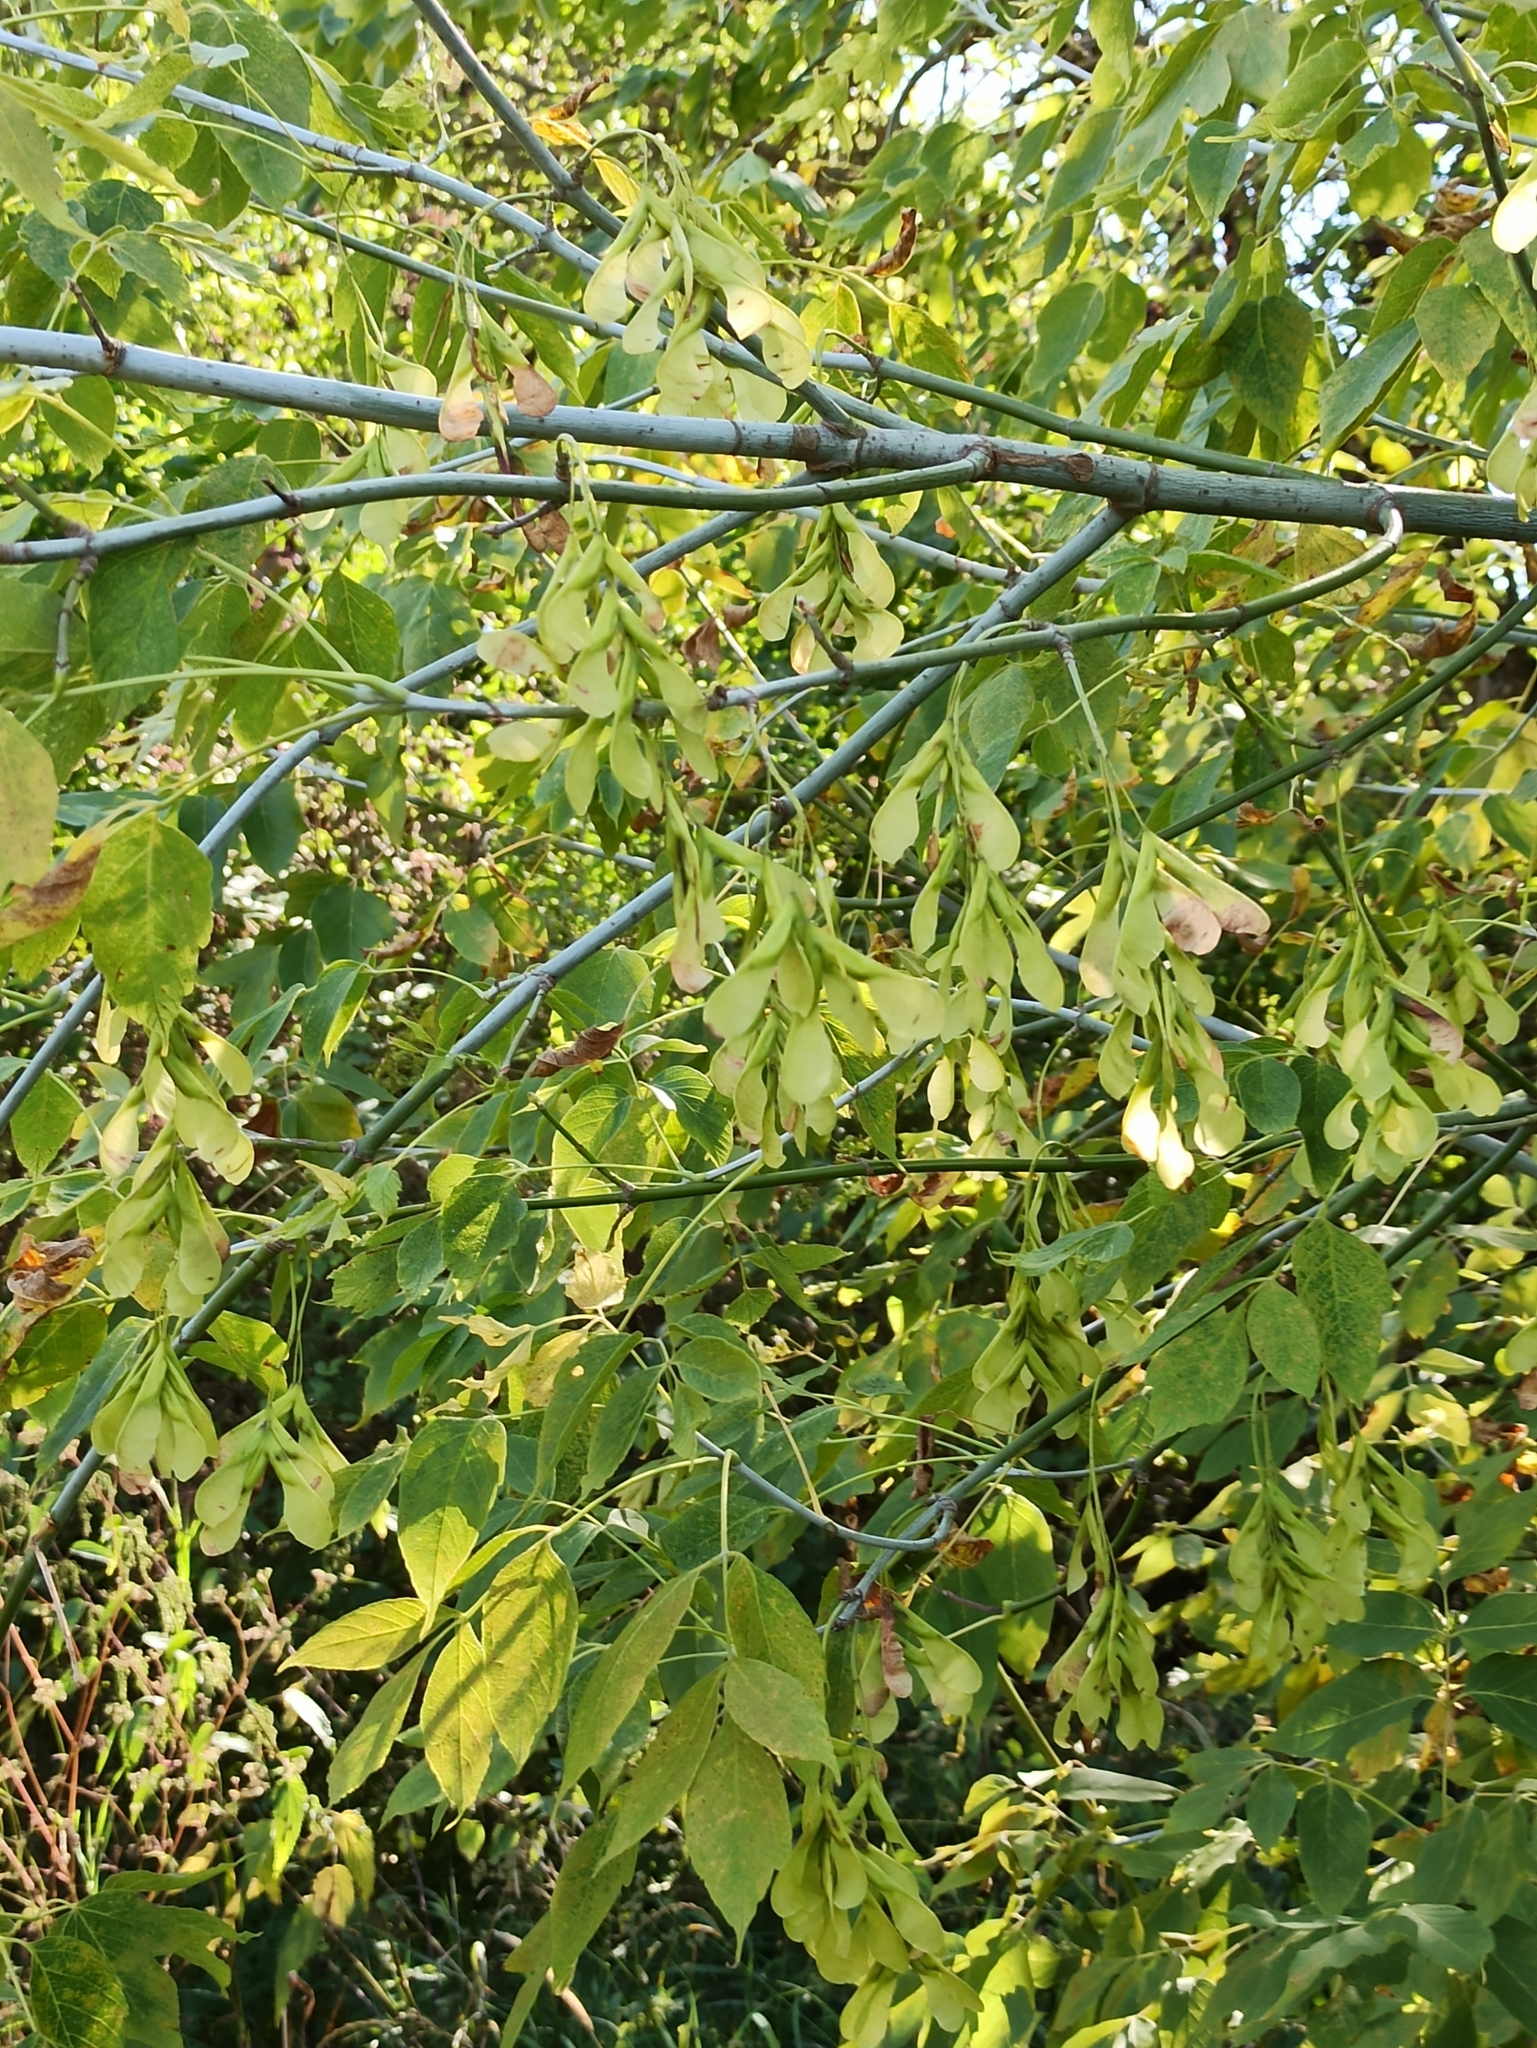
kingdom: Plantae
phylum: Tracheophyta
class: Magnoliopsida
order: Sapindales
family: Sapindaceae
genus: Acer
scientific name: Acer negundo
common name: Ashleaf maple
